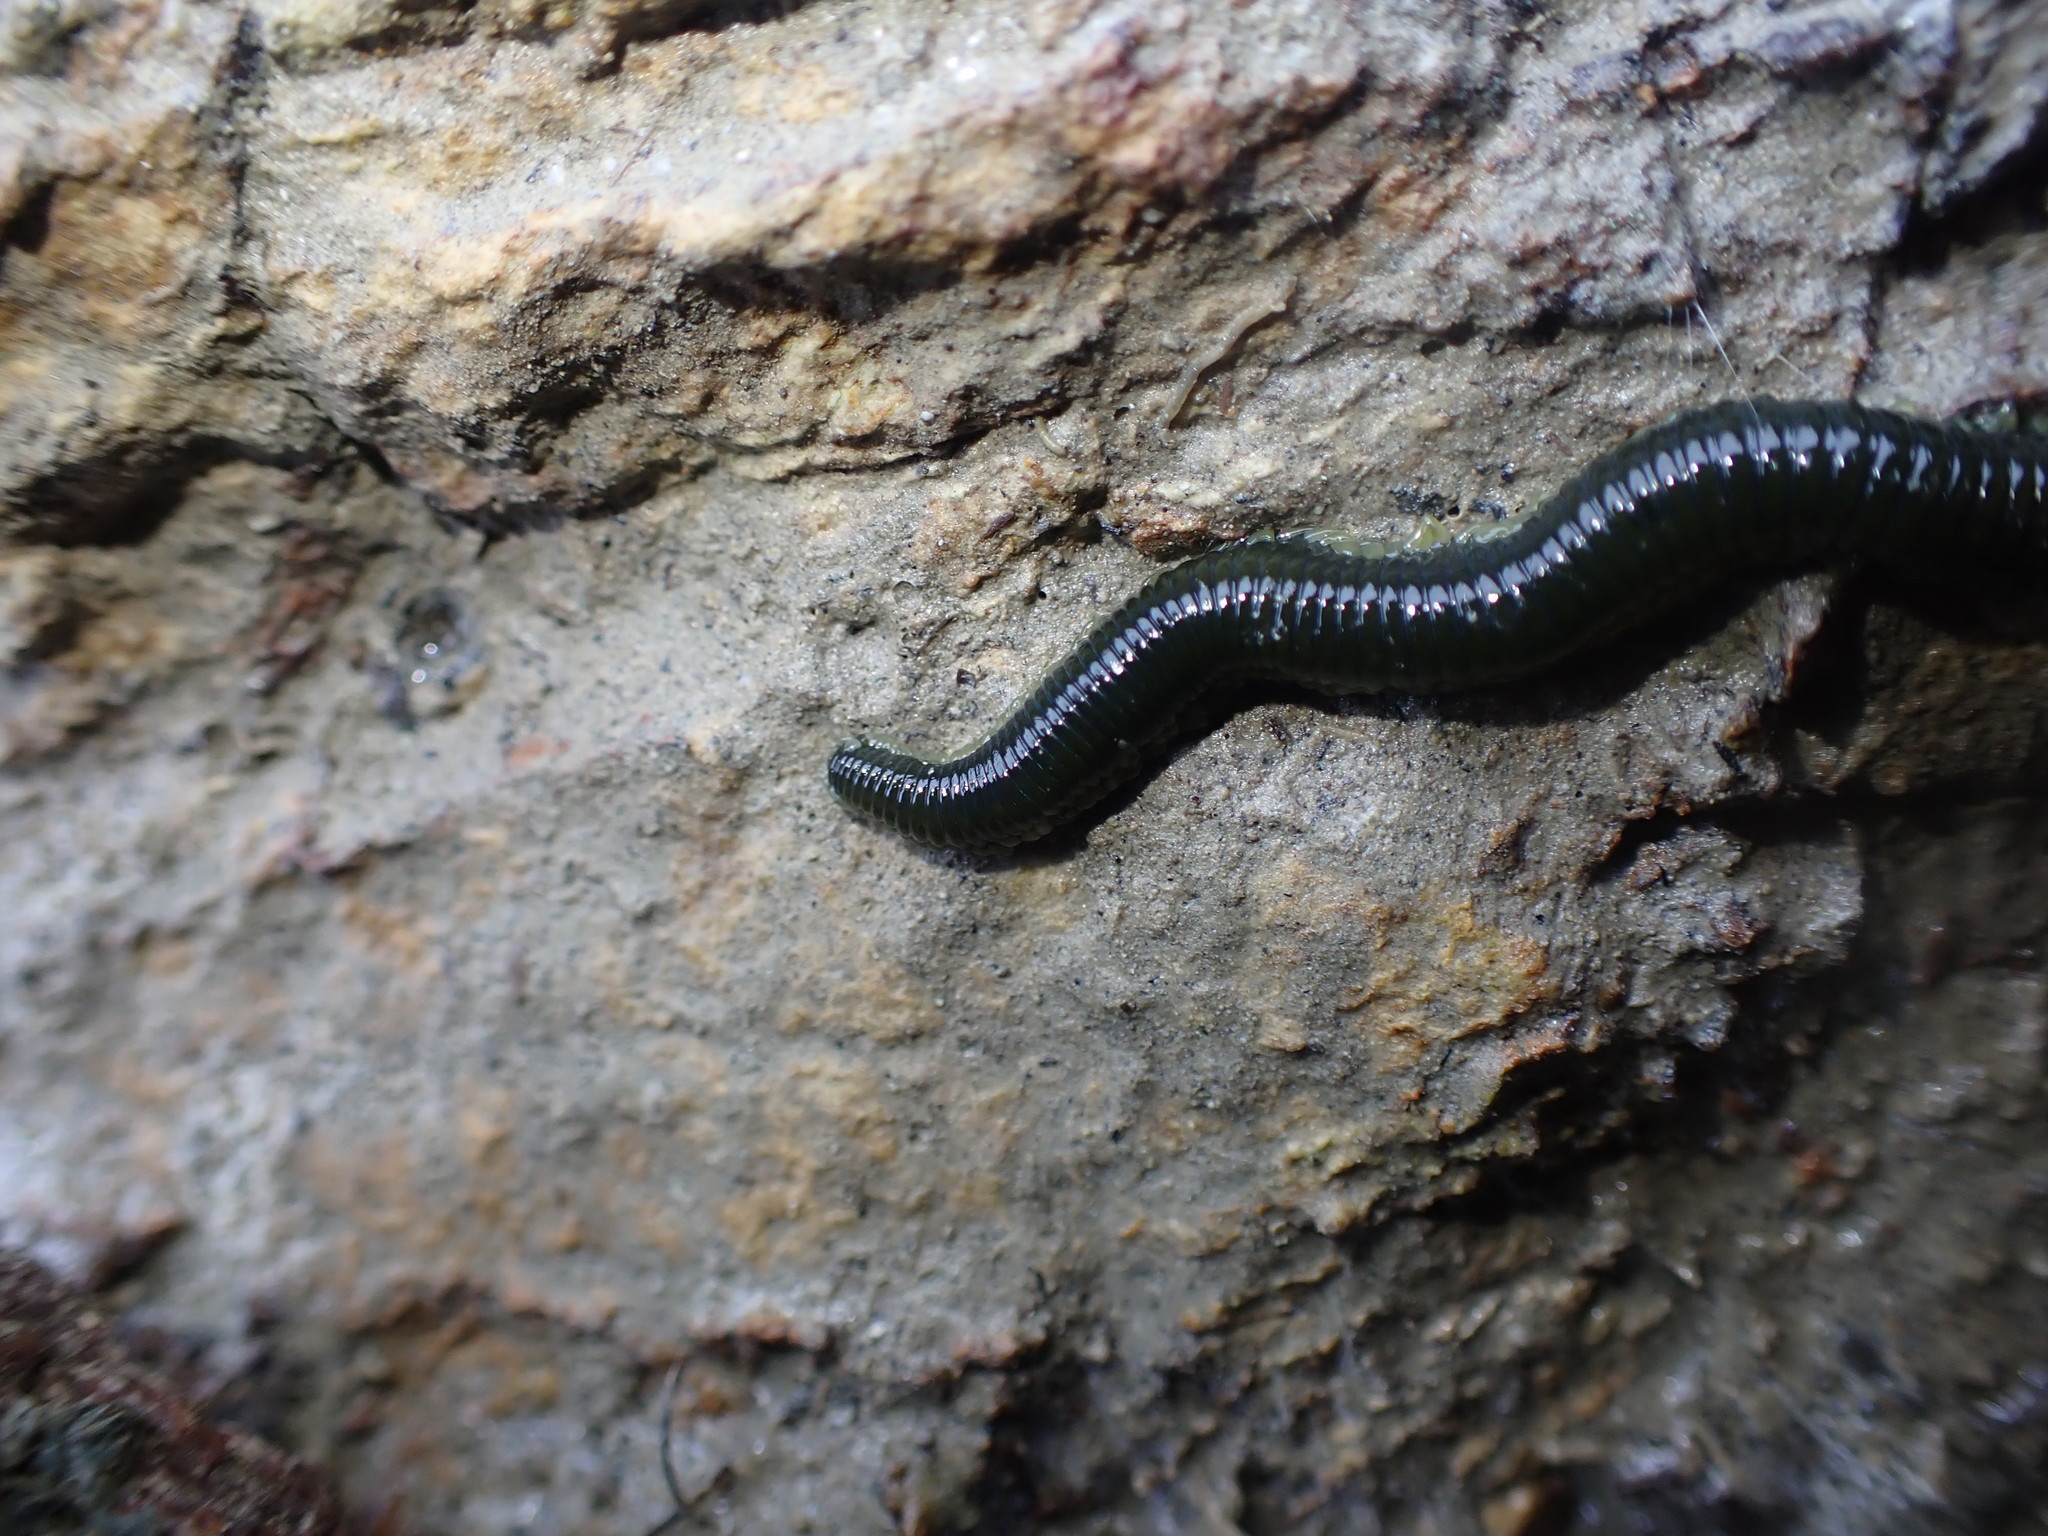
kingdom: Animalia
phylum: Annelida
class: Polychaeta
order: Phyllodocida
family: Phyllodocidae
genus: Eulalia
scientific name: Eulalia microphylla
